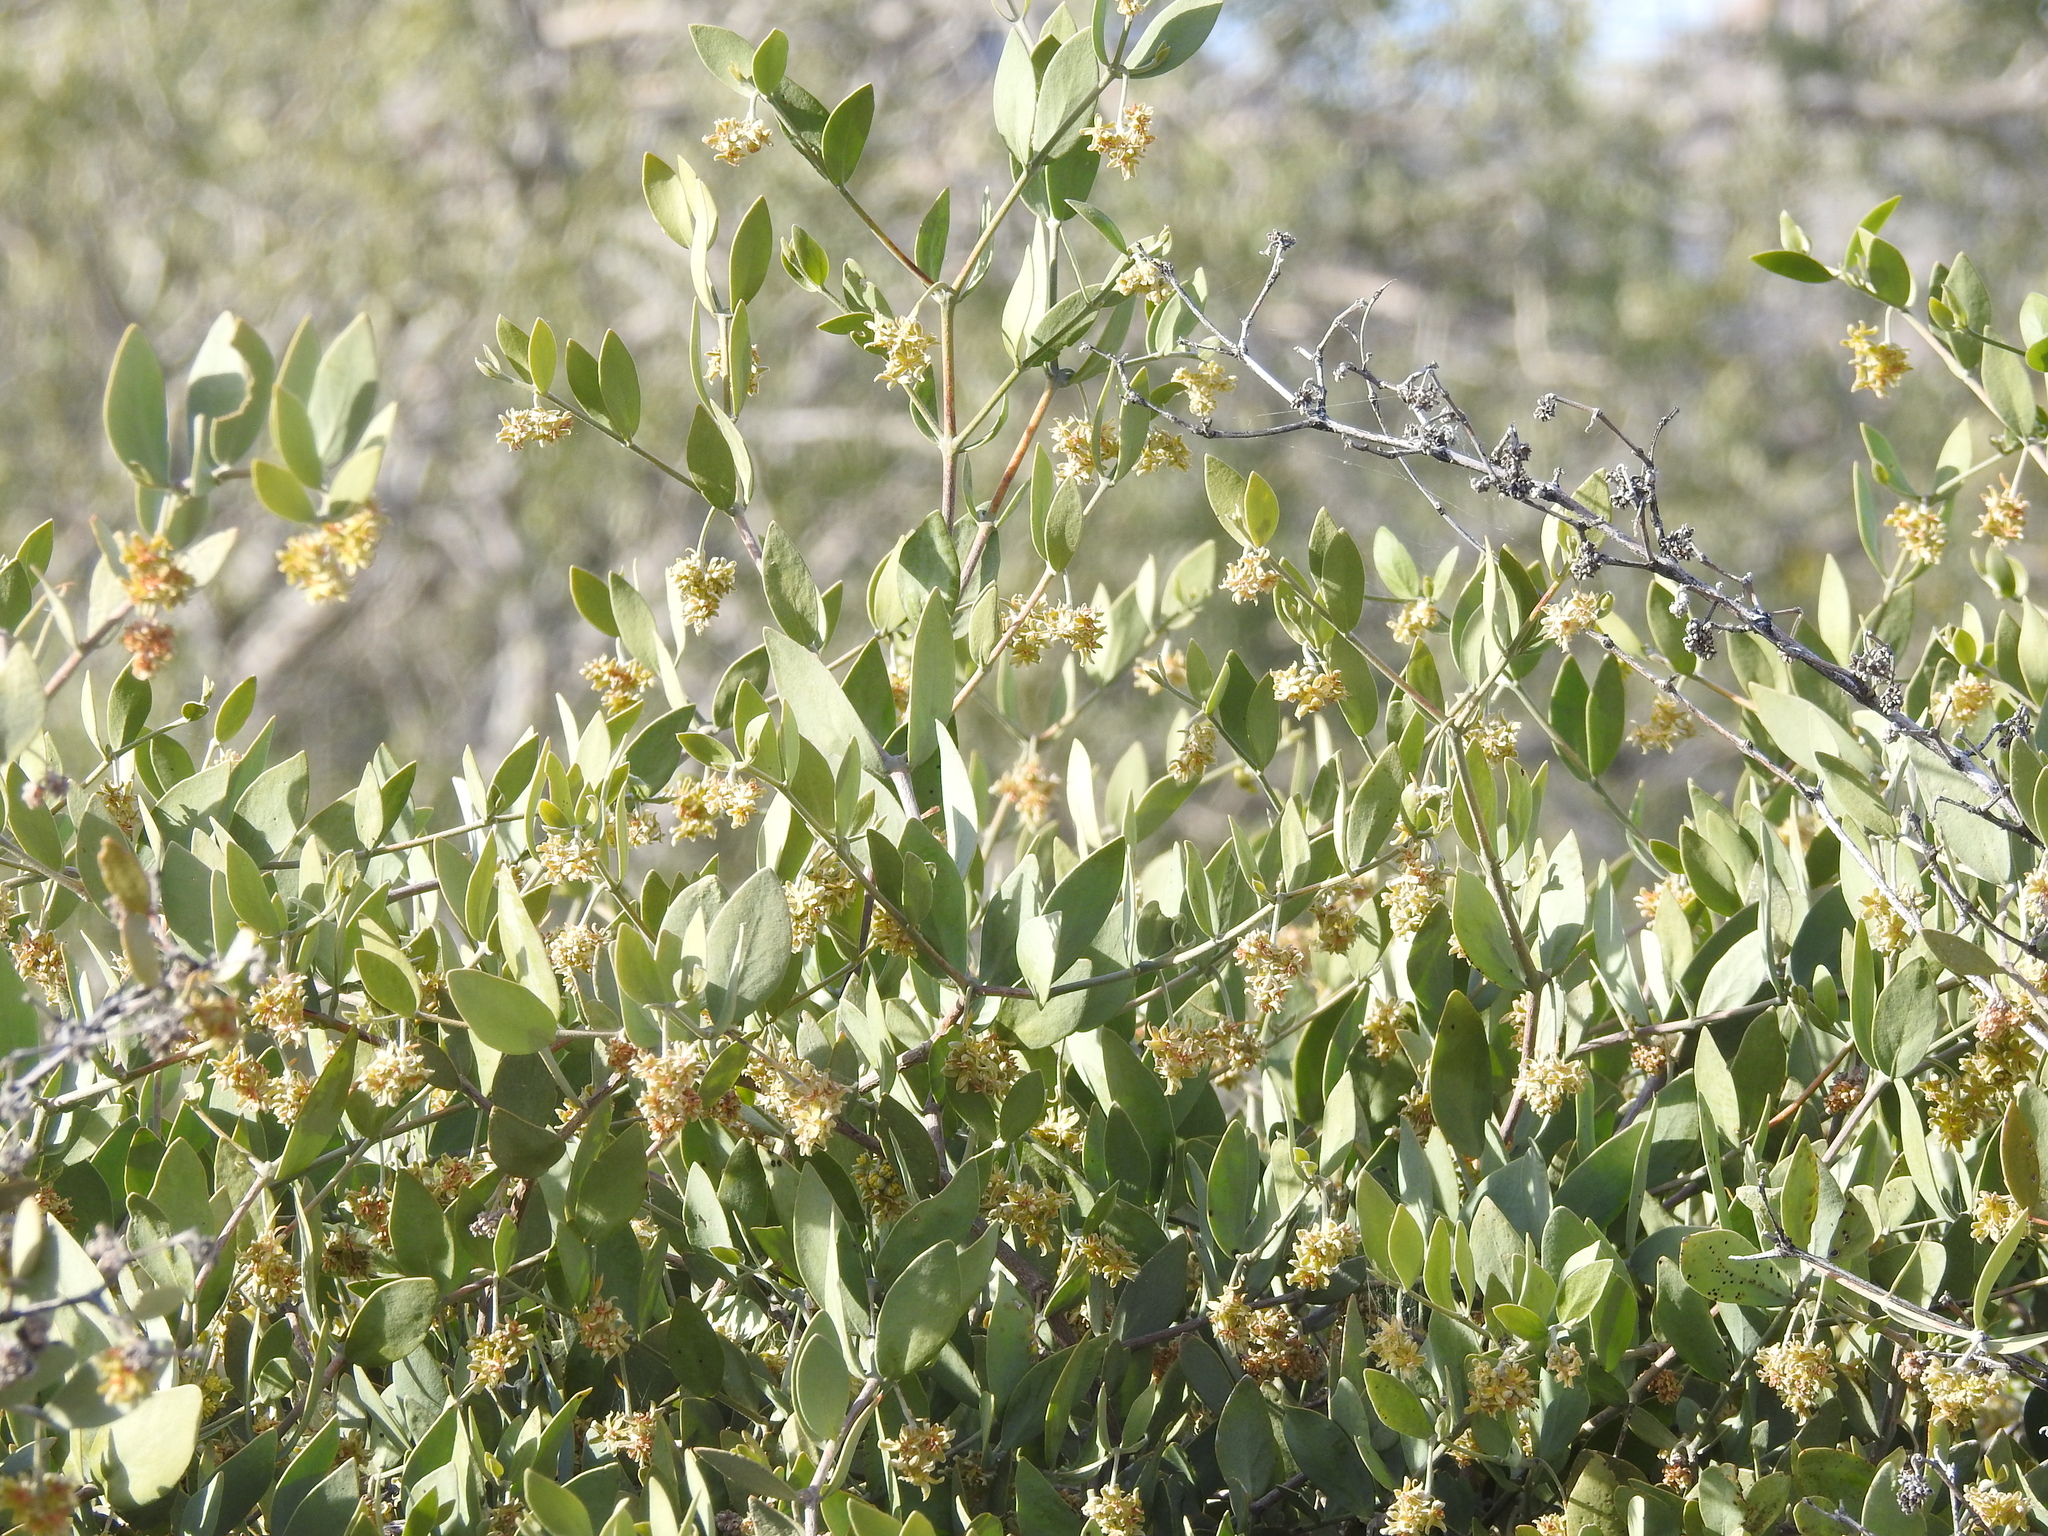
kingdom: Plantae
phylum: Tracheophyta
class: Magnoliopsida
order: Caryophyllales
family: Simmondsiaceae
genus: Simmondsia
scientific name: Simmondsia chinensis
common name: Jojoba
